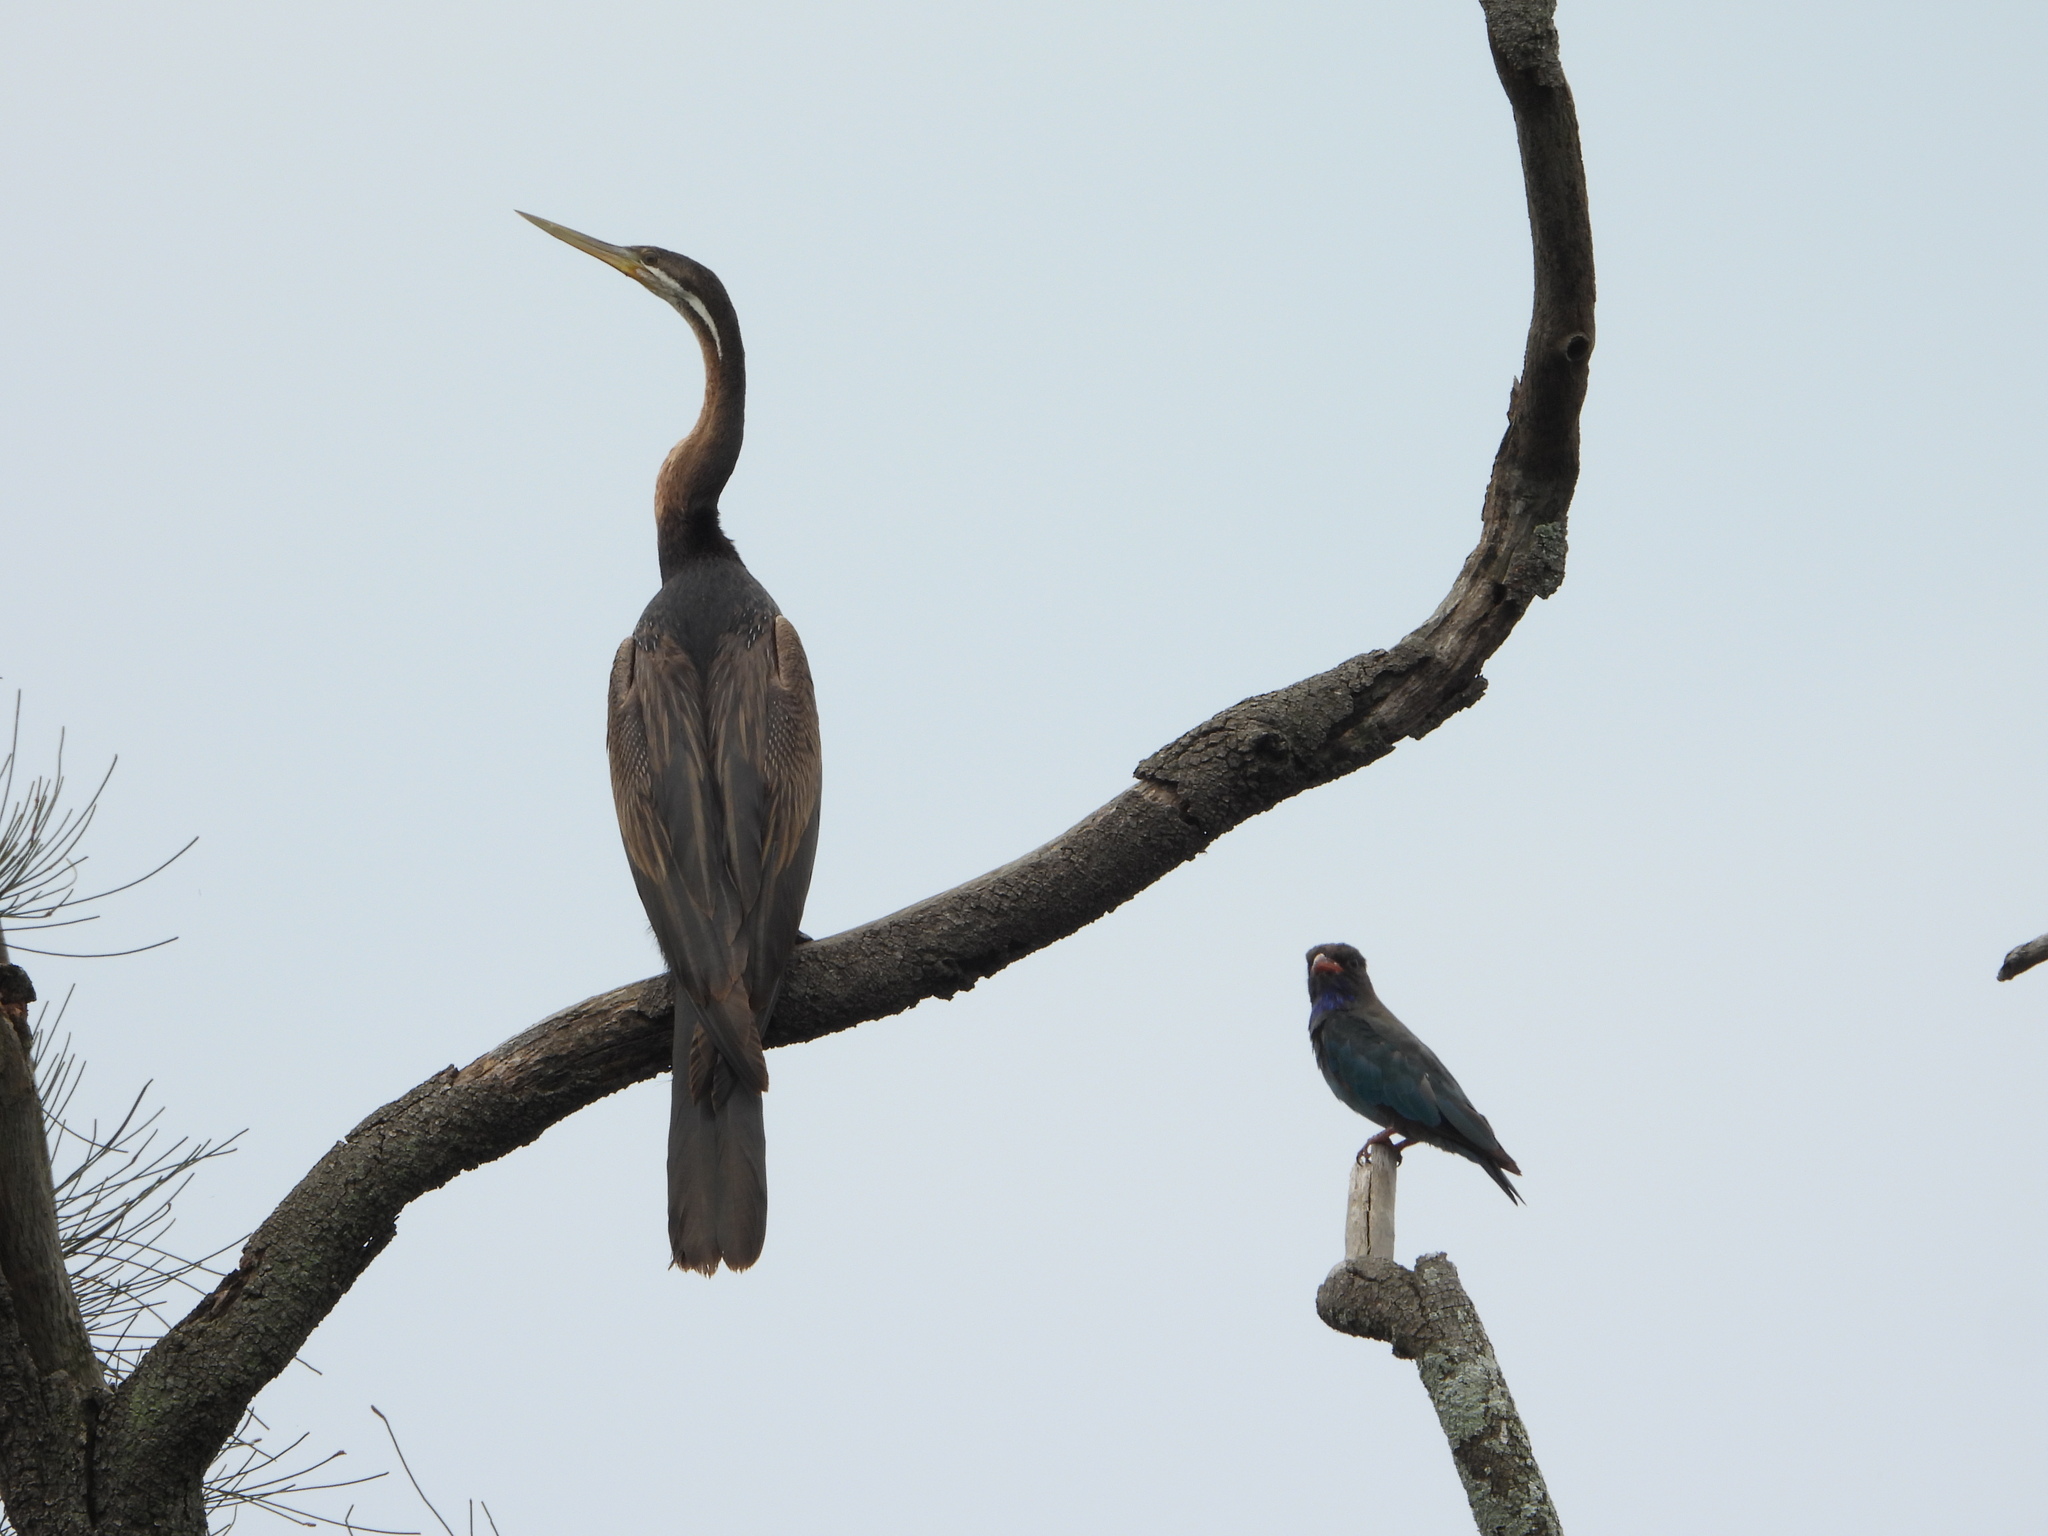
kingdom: Animalia
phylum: Chordata
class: Aves
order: Suliformes
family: Anhingidae
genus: Anhinga
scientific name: Anhinga novaehollandiae
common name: Australasian darter
